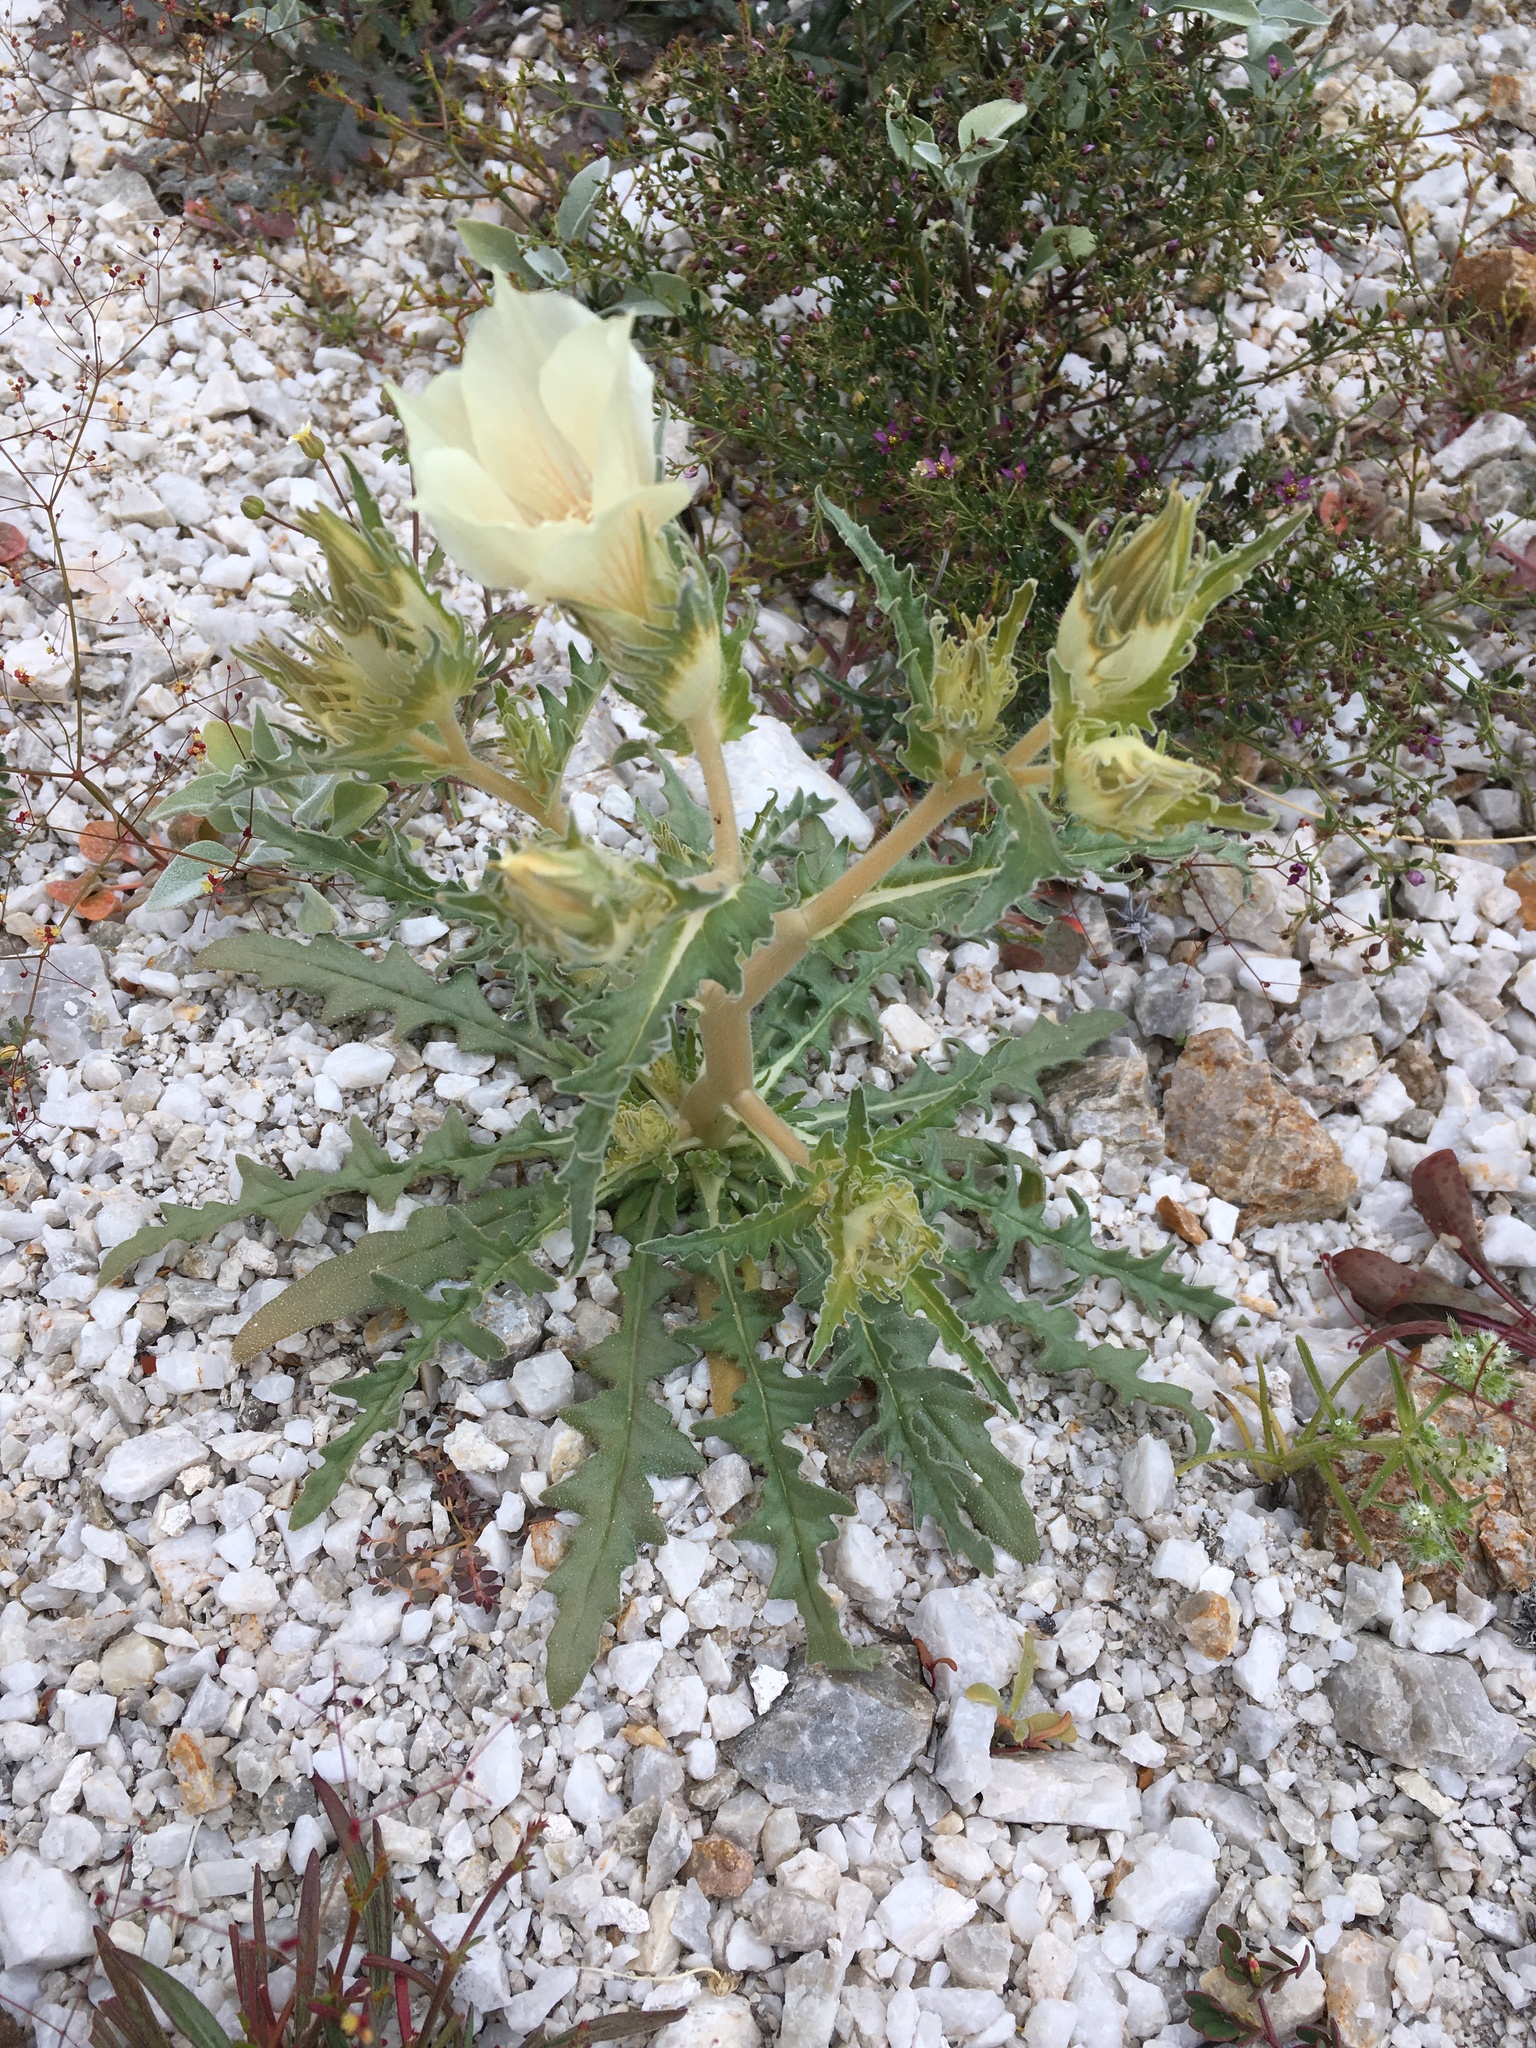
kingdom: Plantae
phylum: Tracheophyta
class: Magnoliopsida
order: Cornales
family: Loasaceae
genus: Mentzelia
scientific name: Mentzelia involucrata
